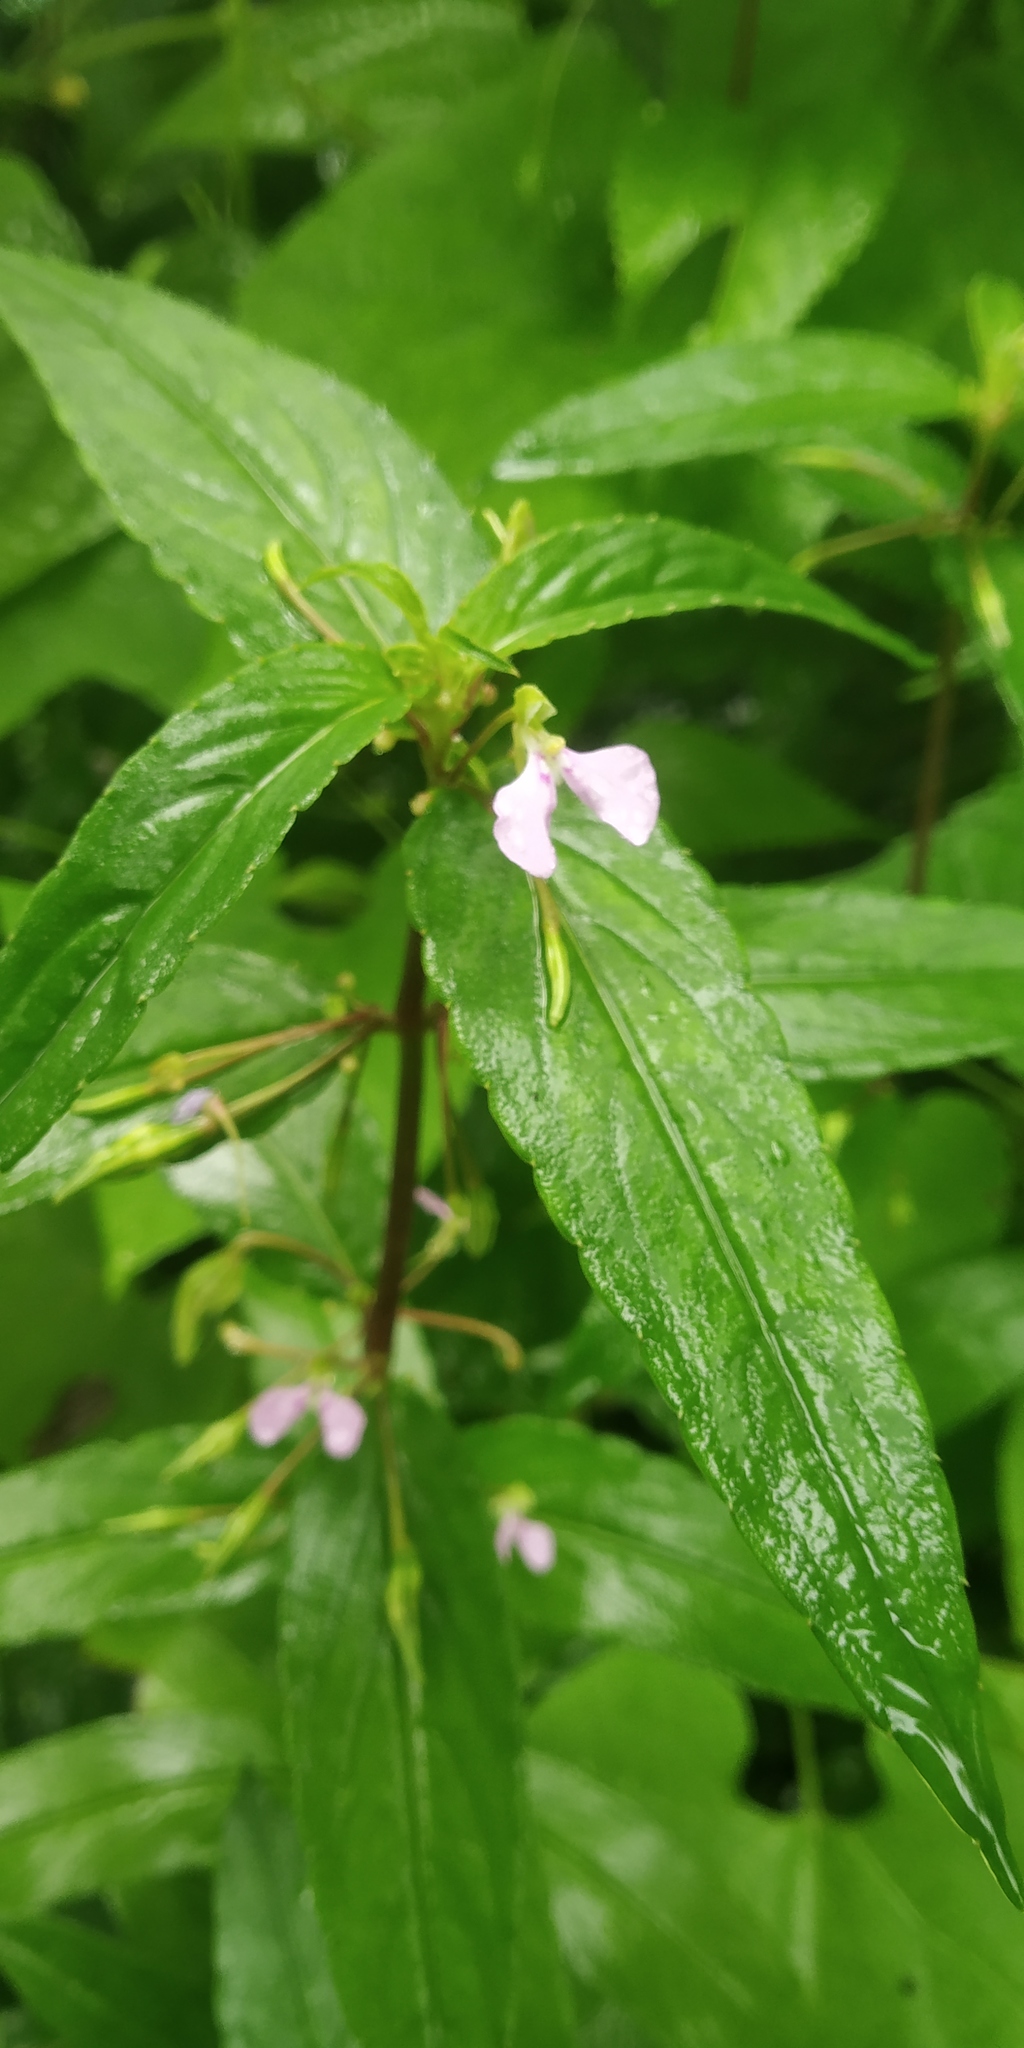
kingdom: Plantae
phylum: Tracheophyta
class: Magnoliopsida
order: Ericales
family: Balsaminaceae
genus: Impatiens
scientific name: Impatiens minor
